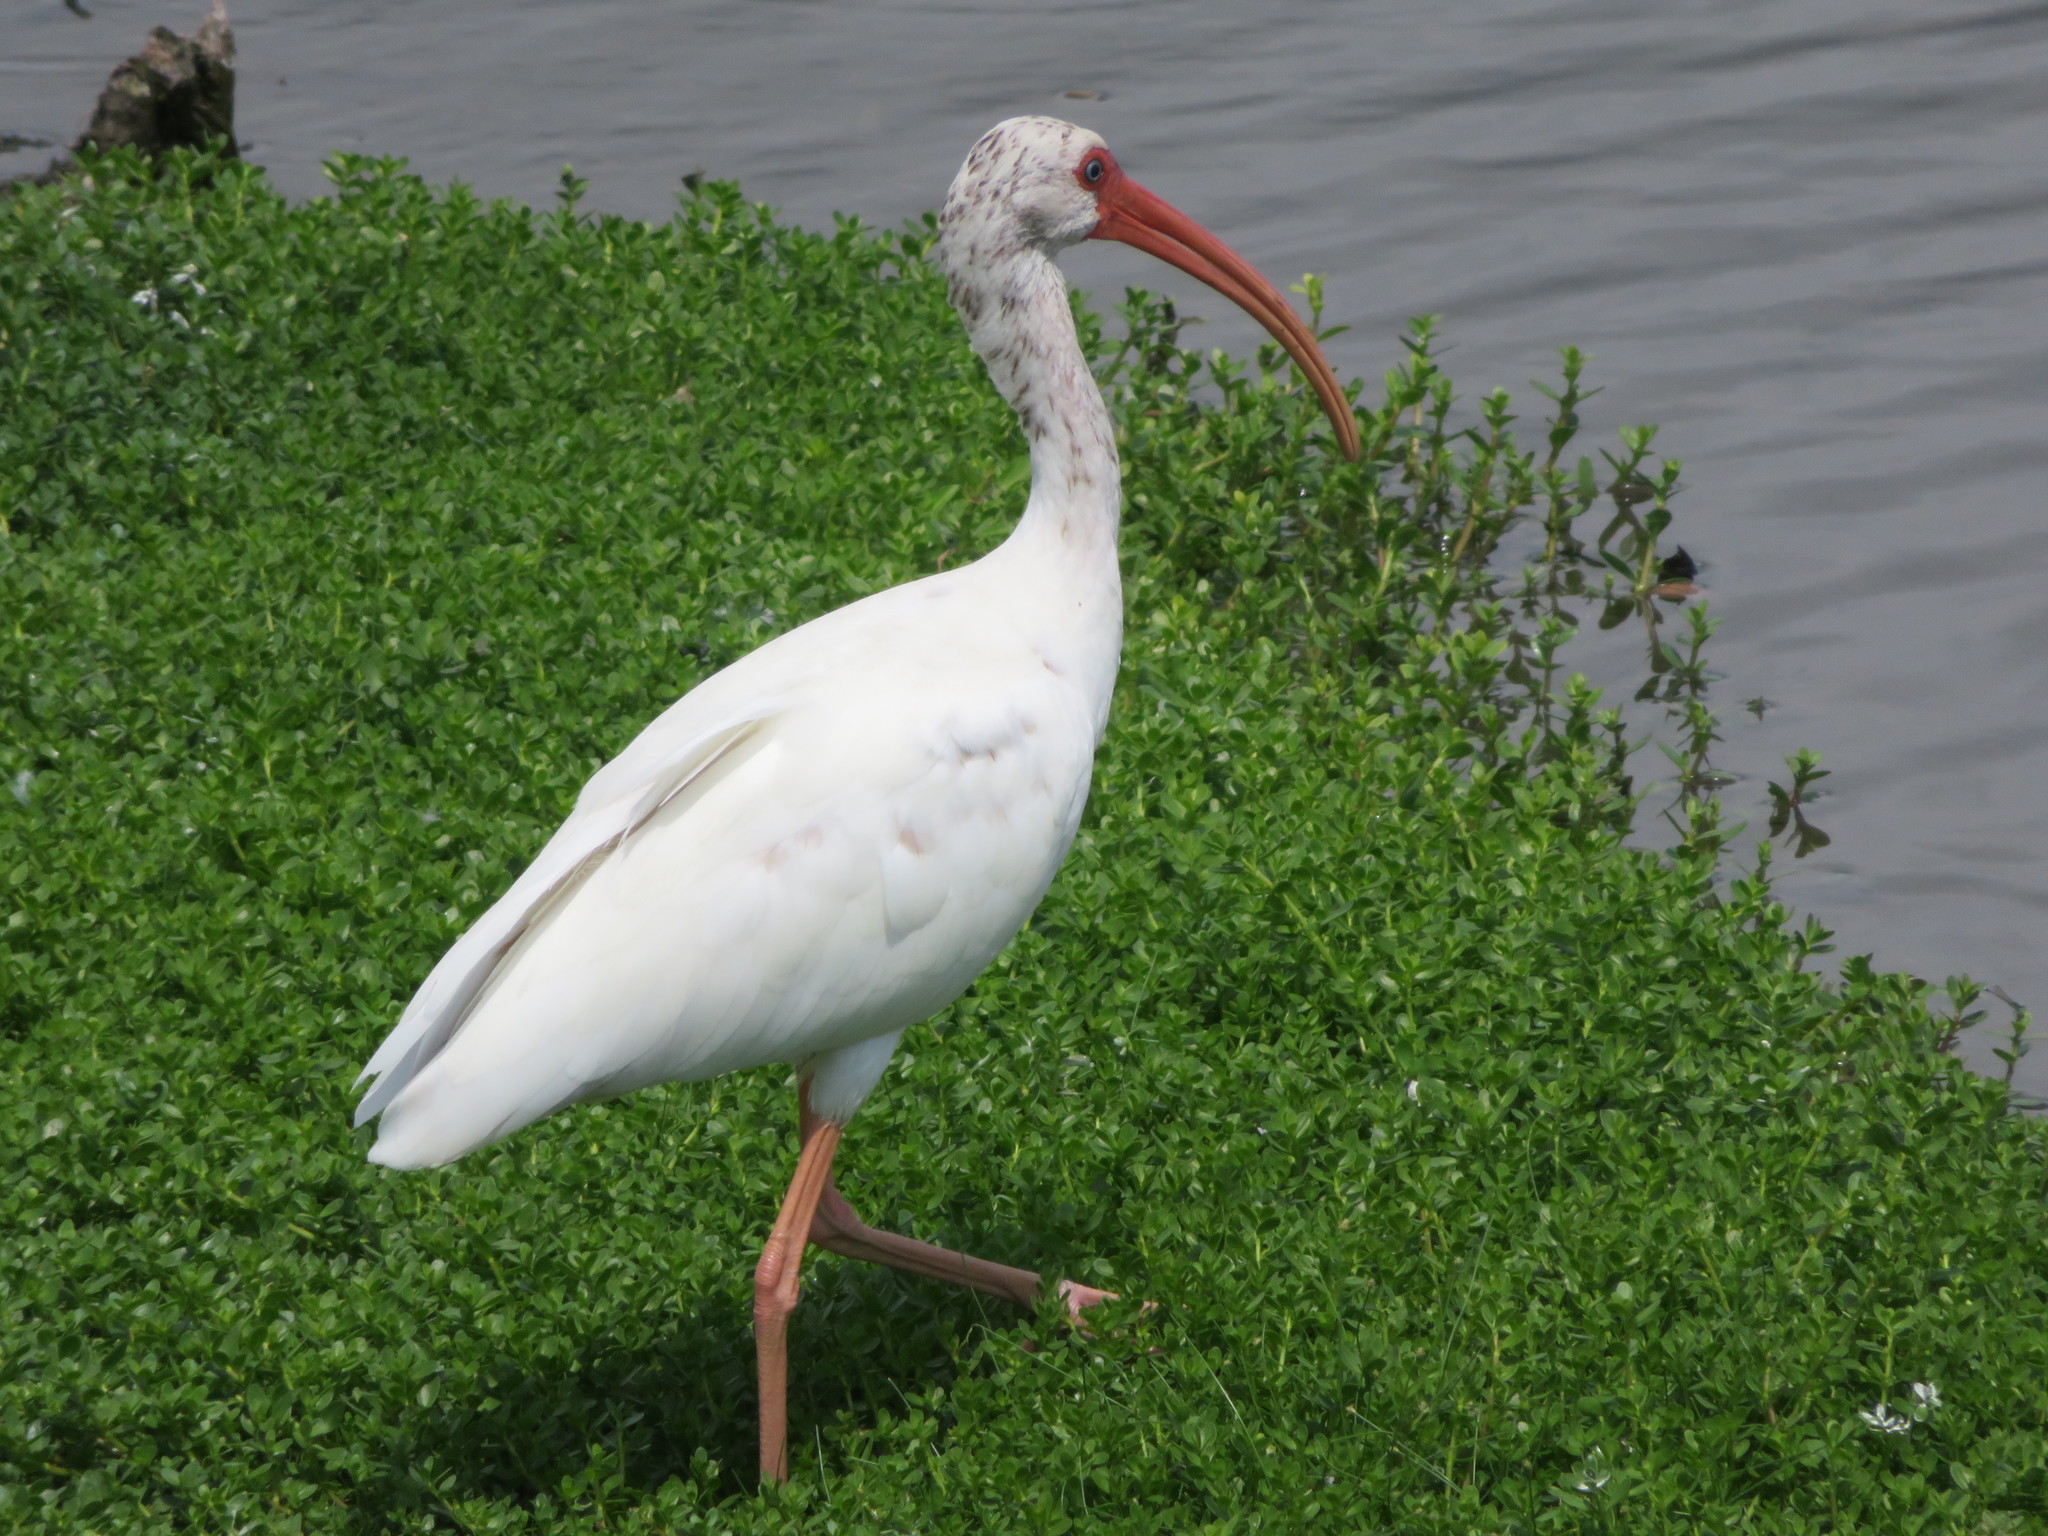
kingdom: Animalia
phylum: Chordata
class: Aves
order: Pelecaniformes
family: Threskiornithidae
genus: Eudocimus
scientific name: Eudocimus albus
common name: White ibis
